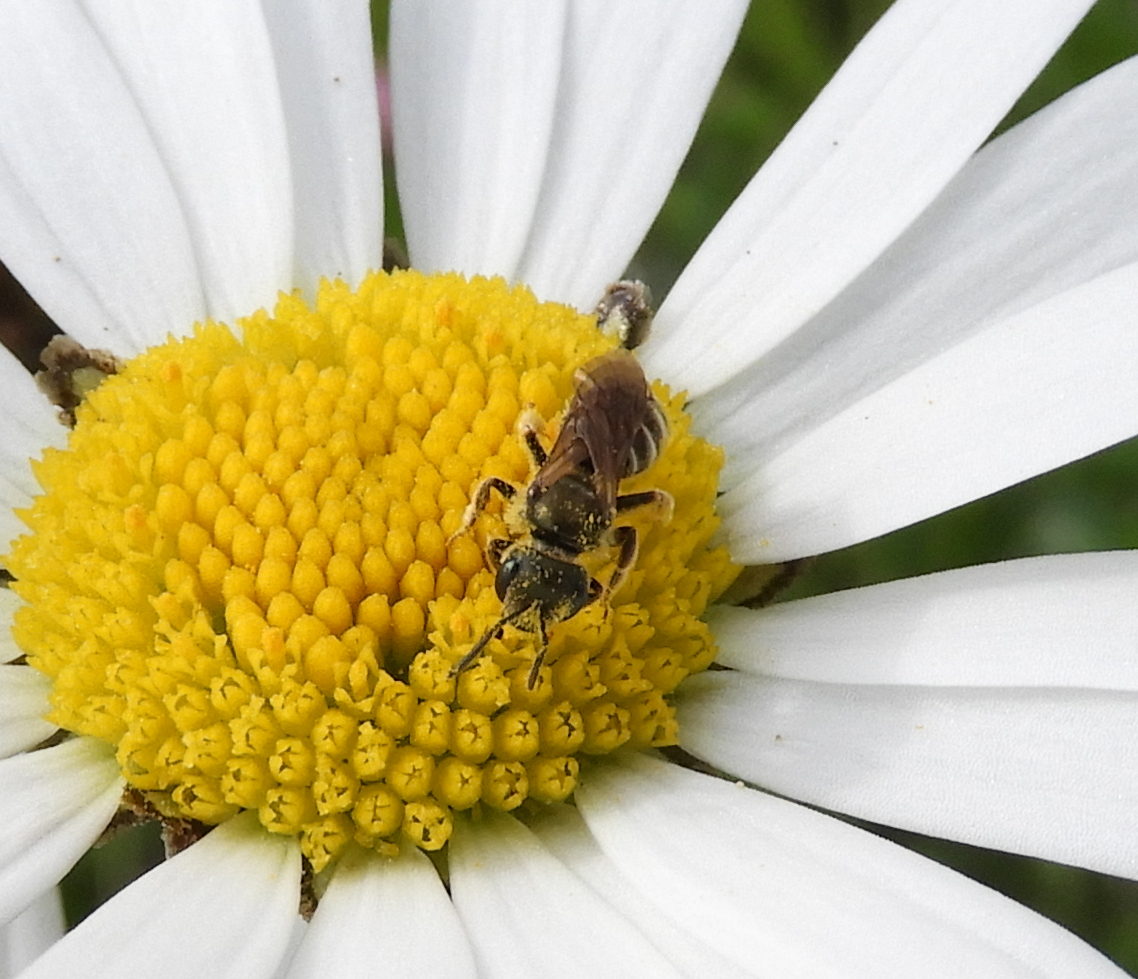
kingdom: Animalia
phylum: Arthropoda
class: Insecta
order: Hymenoptera
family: Halictidae
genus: Halictus
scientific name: Halictus tumulorum
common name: Bronze furrow bee
